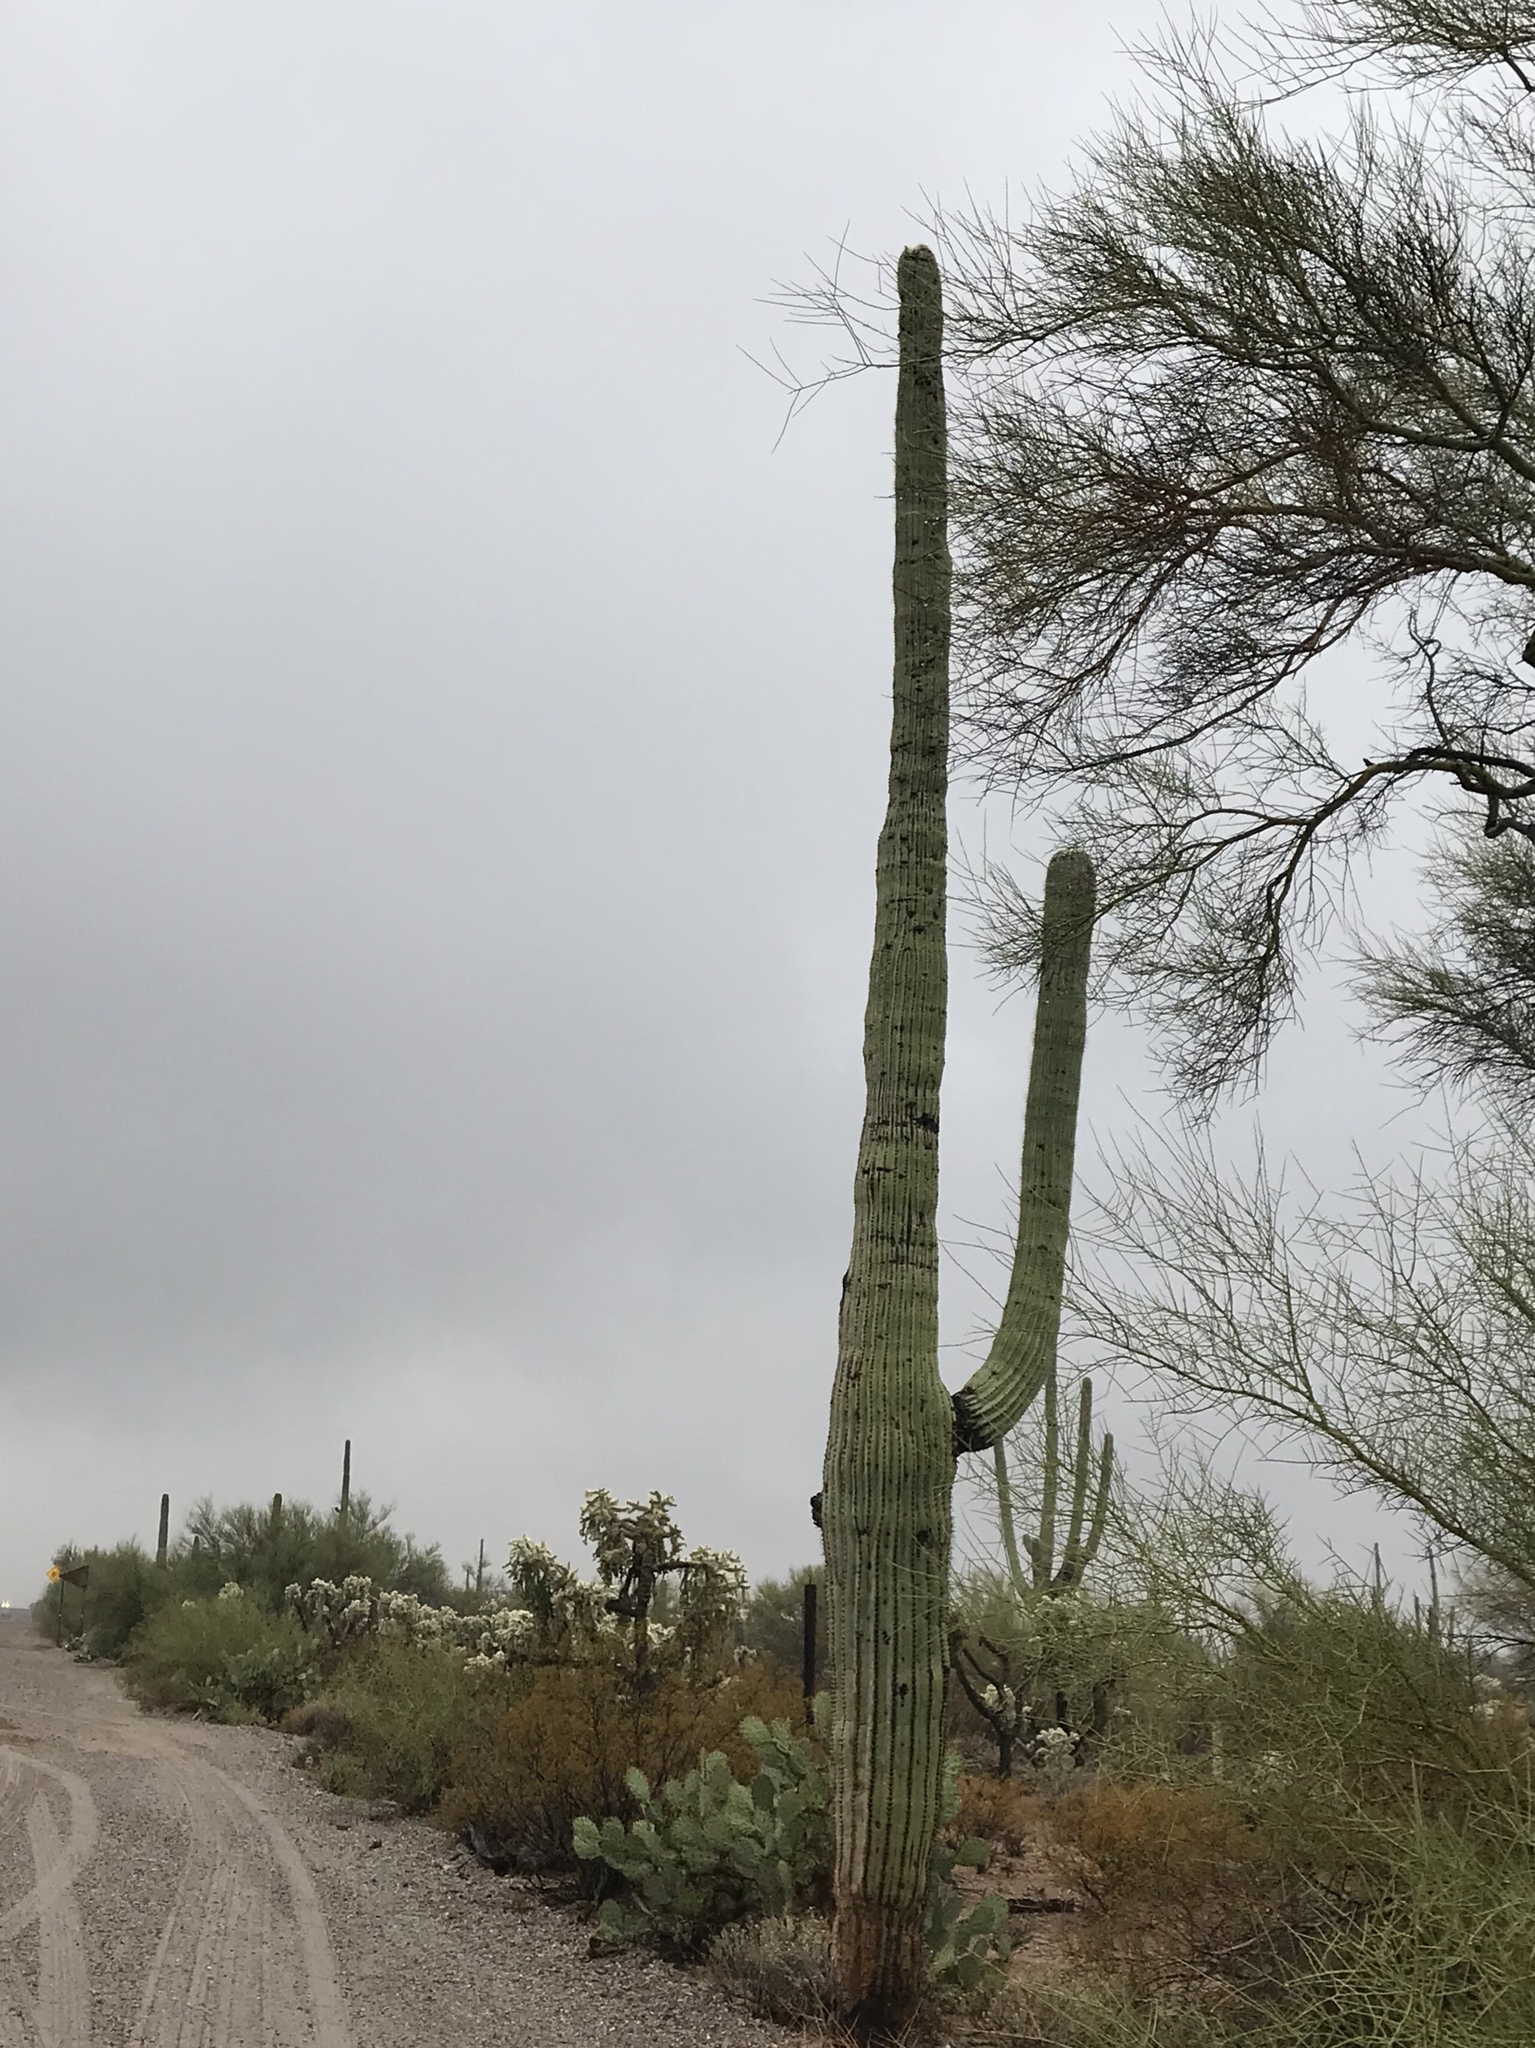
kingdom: Plantae
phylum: Tracheophyta
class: Magnoliopsida
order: Caryophyllales
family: Cactaceae
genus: Carnegiea
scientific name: Carnegiea gigantea
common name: Saguaro
